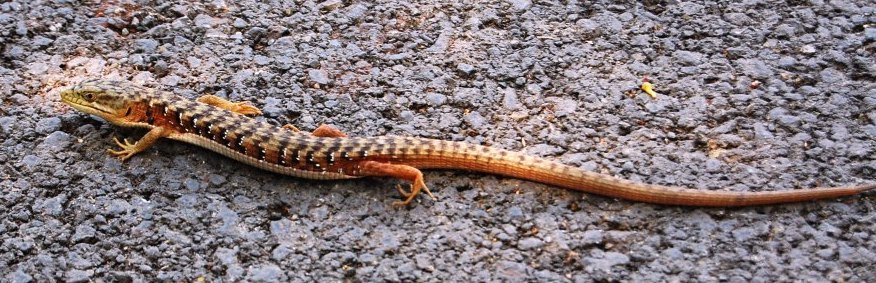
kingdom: Animalia
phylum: Chordata
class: Squamata
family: Anguidae
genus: Elgaria
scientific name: Elgaria multicarinata
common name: Southern alligator lizard
